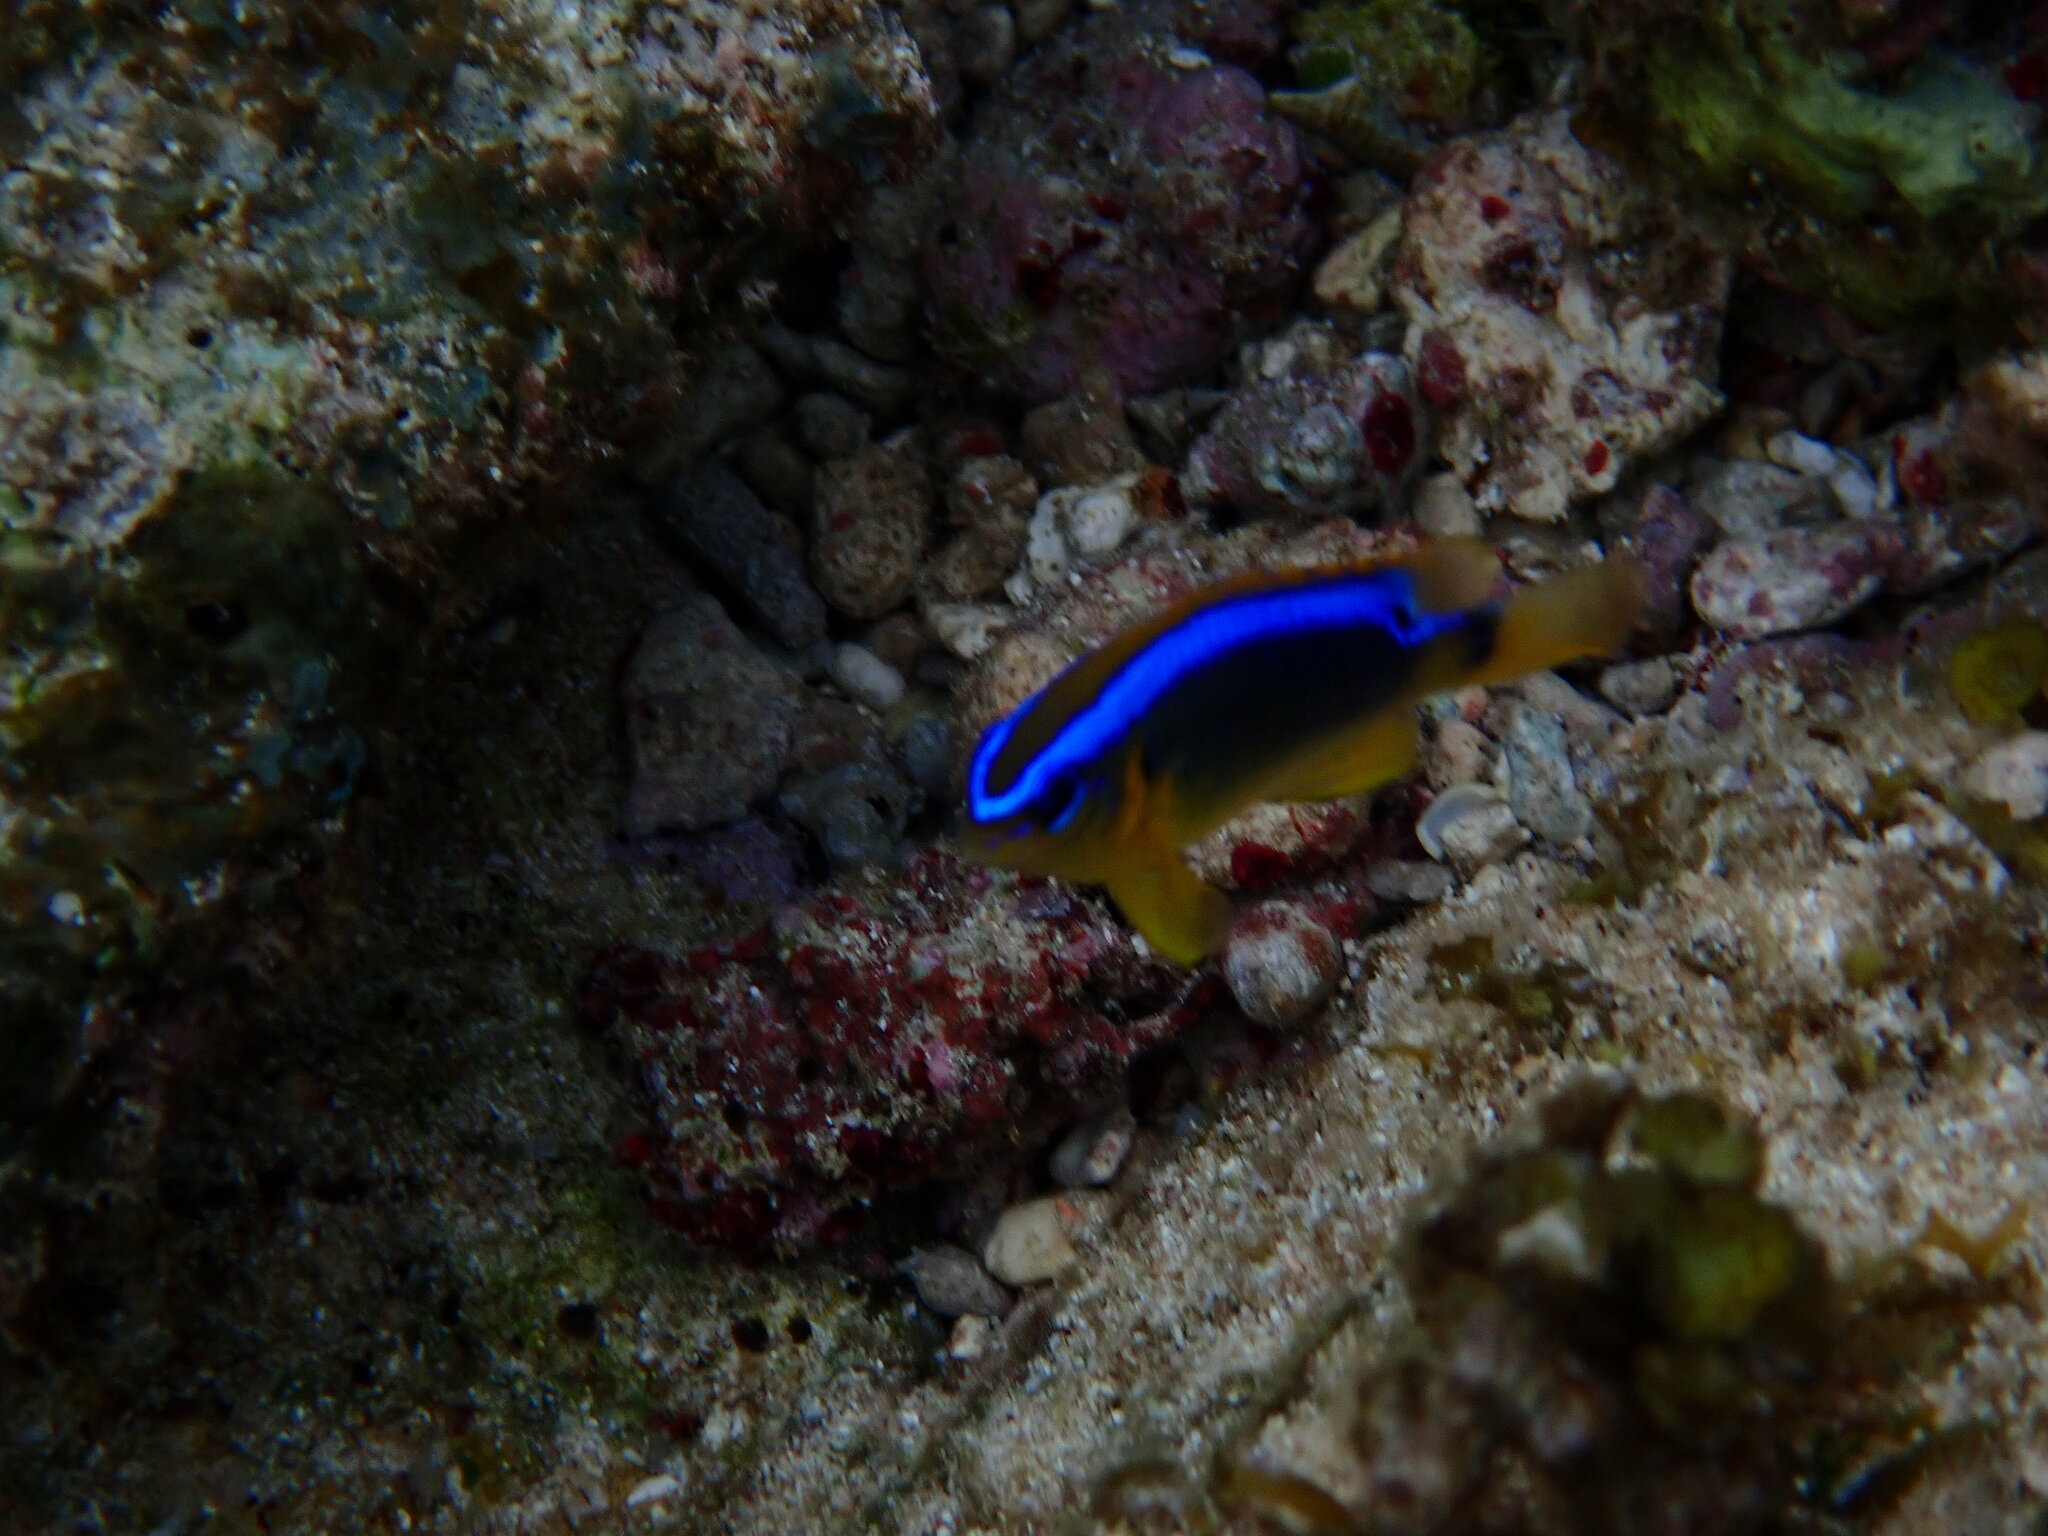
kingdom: Animalia
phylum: Chordata
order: Perciformes
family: Pomacentridae
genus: Chrysiptera
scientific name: Chrysiptera brownriggii
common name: Surge demoiselle
